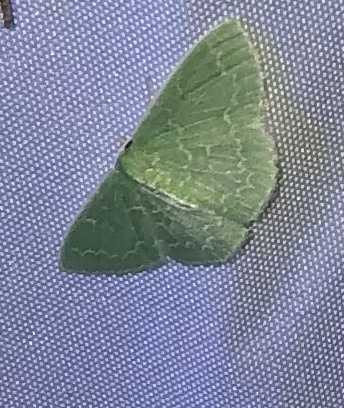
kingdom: Animalia
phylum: Arthropoda
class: Insecta
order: Lepidoptera
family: Geometridae
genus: Synchlora
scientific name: Synchlora frondaria
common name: Southern emerald
